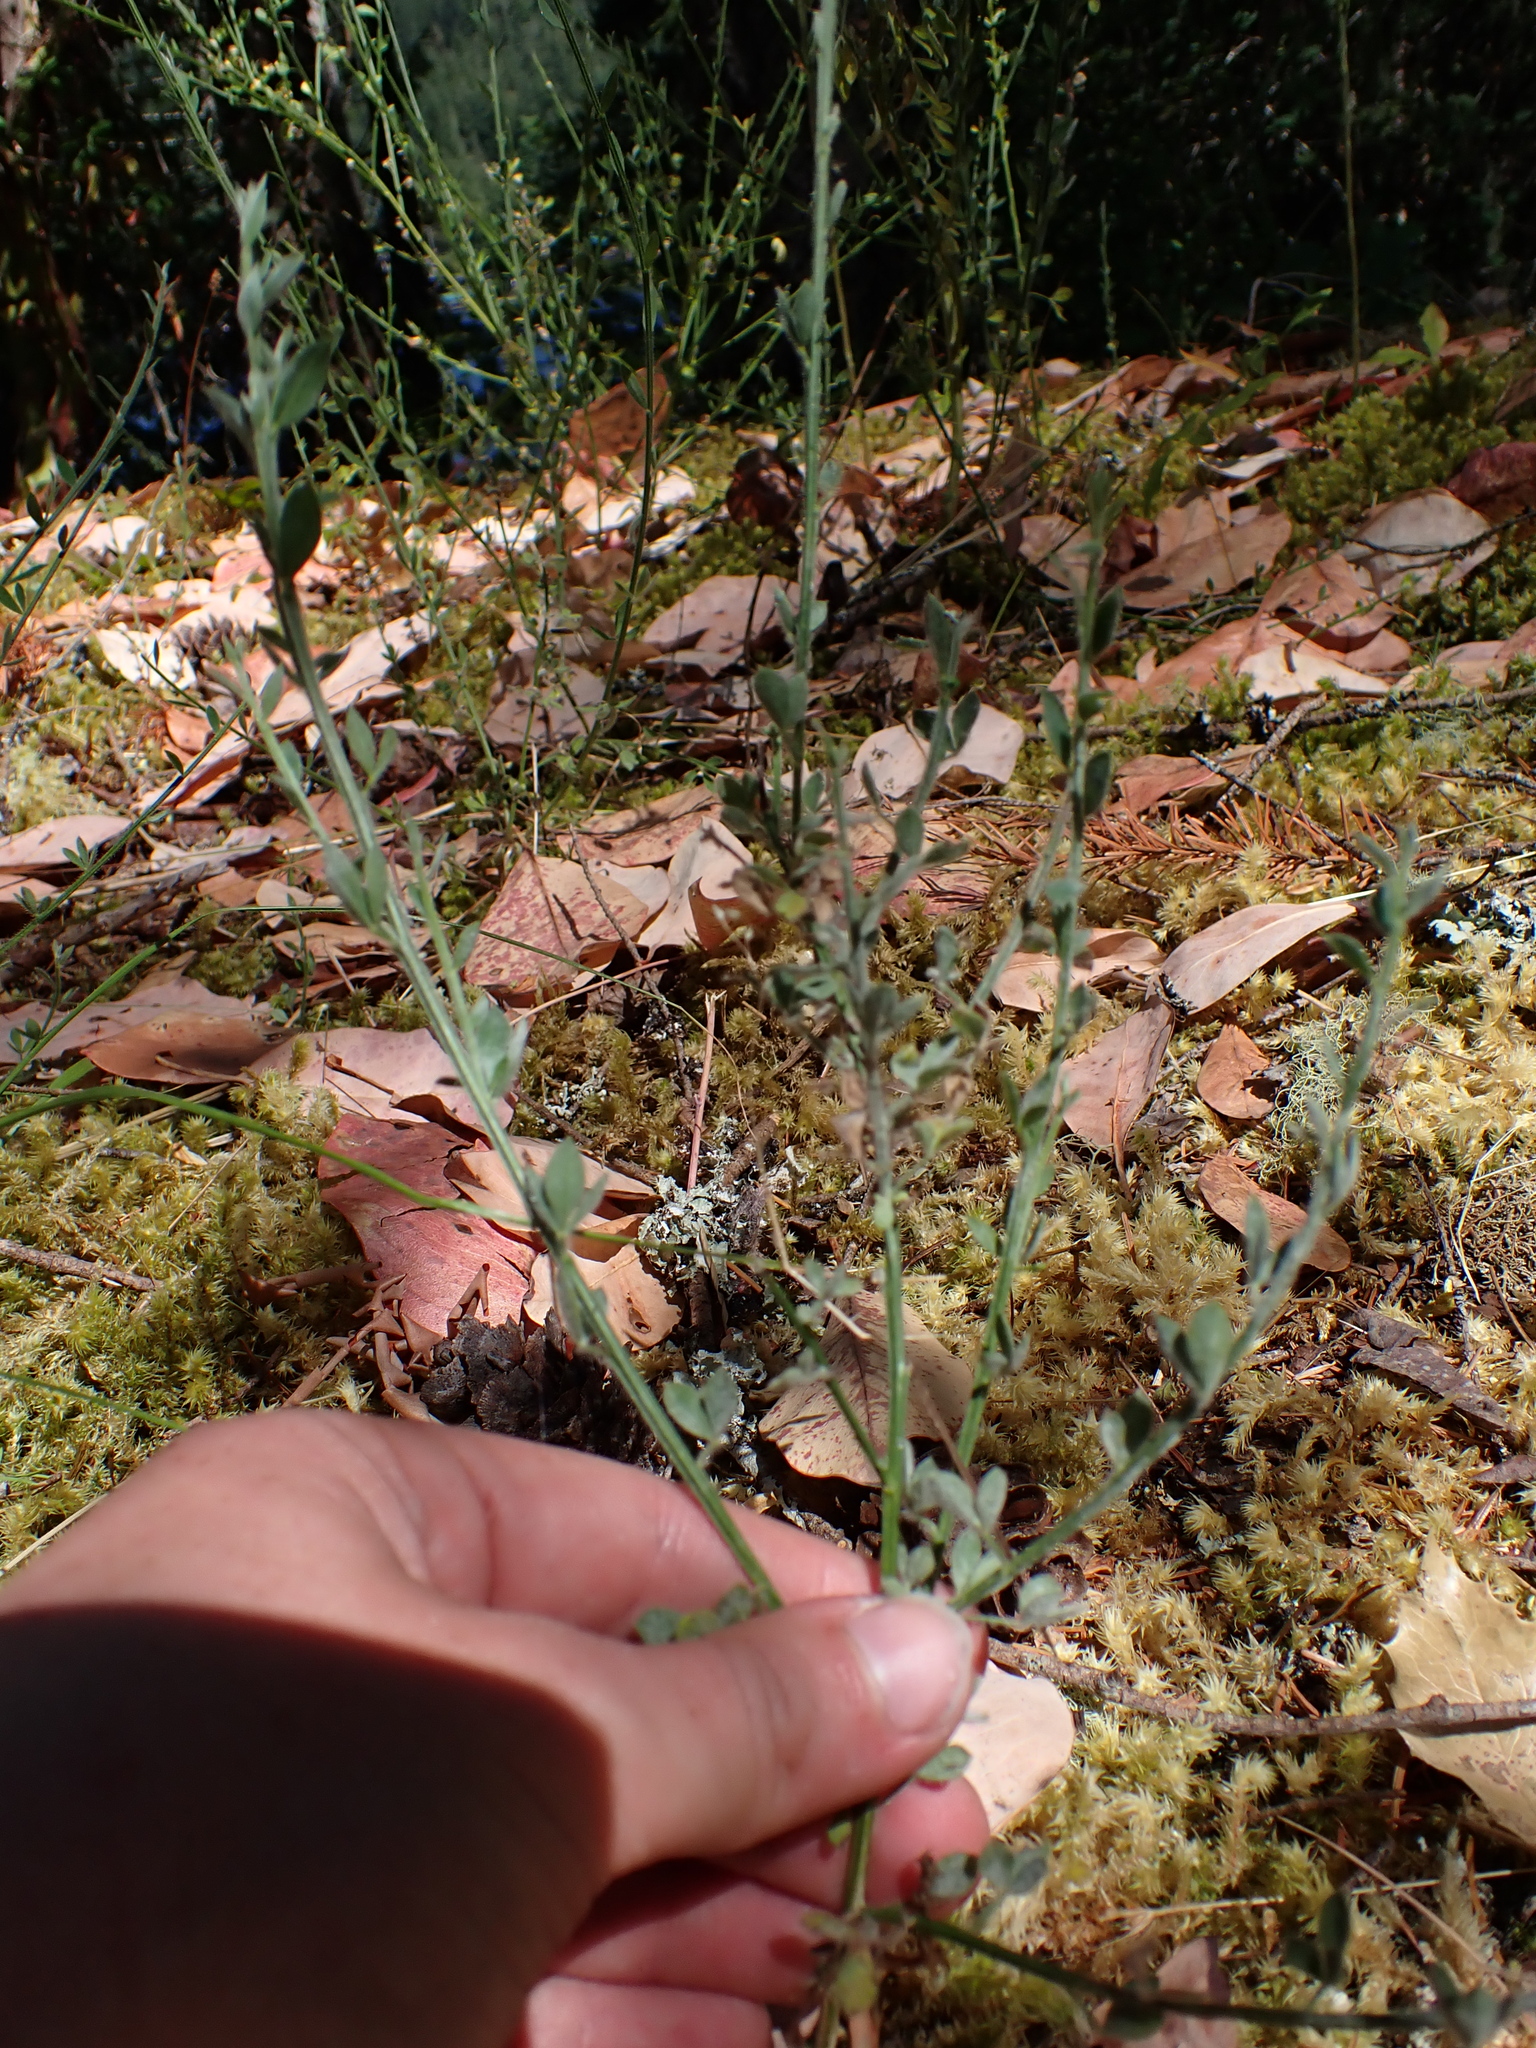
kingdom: Plantae
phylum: Tracheophyta
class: Magnoliopsida
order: Fabales
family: Fabaceae
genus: Cytisus
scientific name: Cytisus scoparius
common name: Scotch broom
